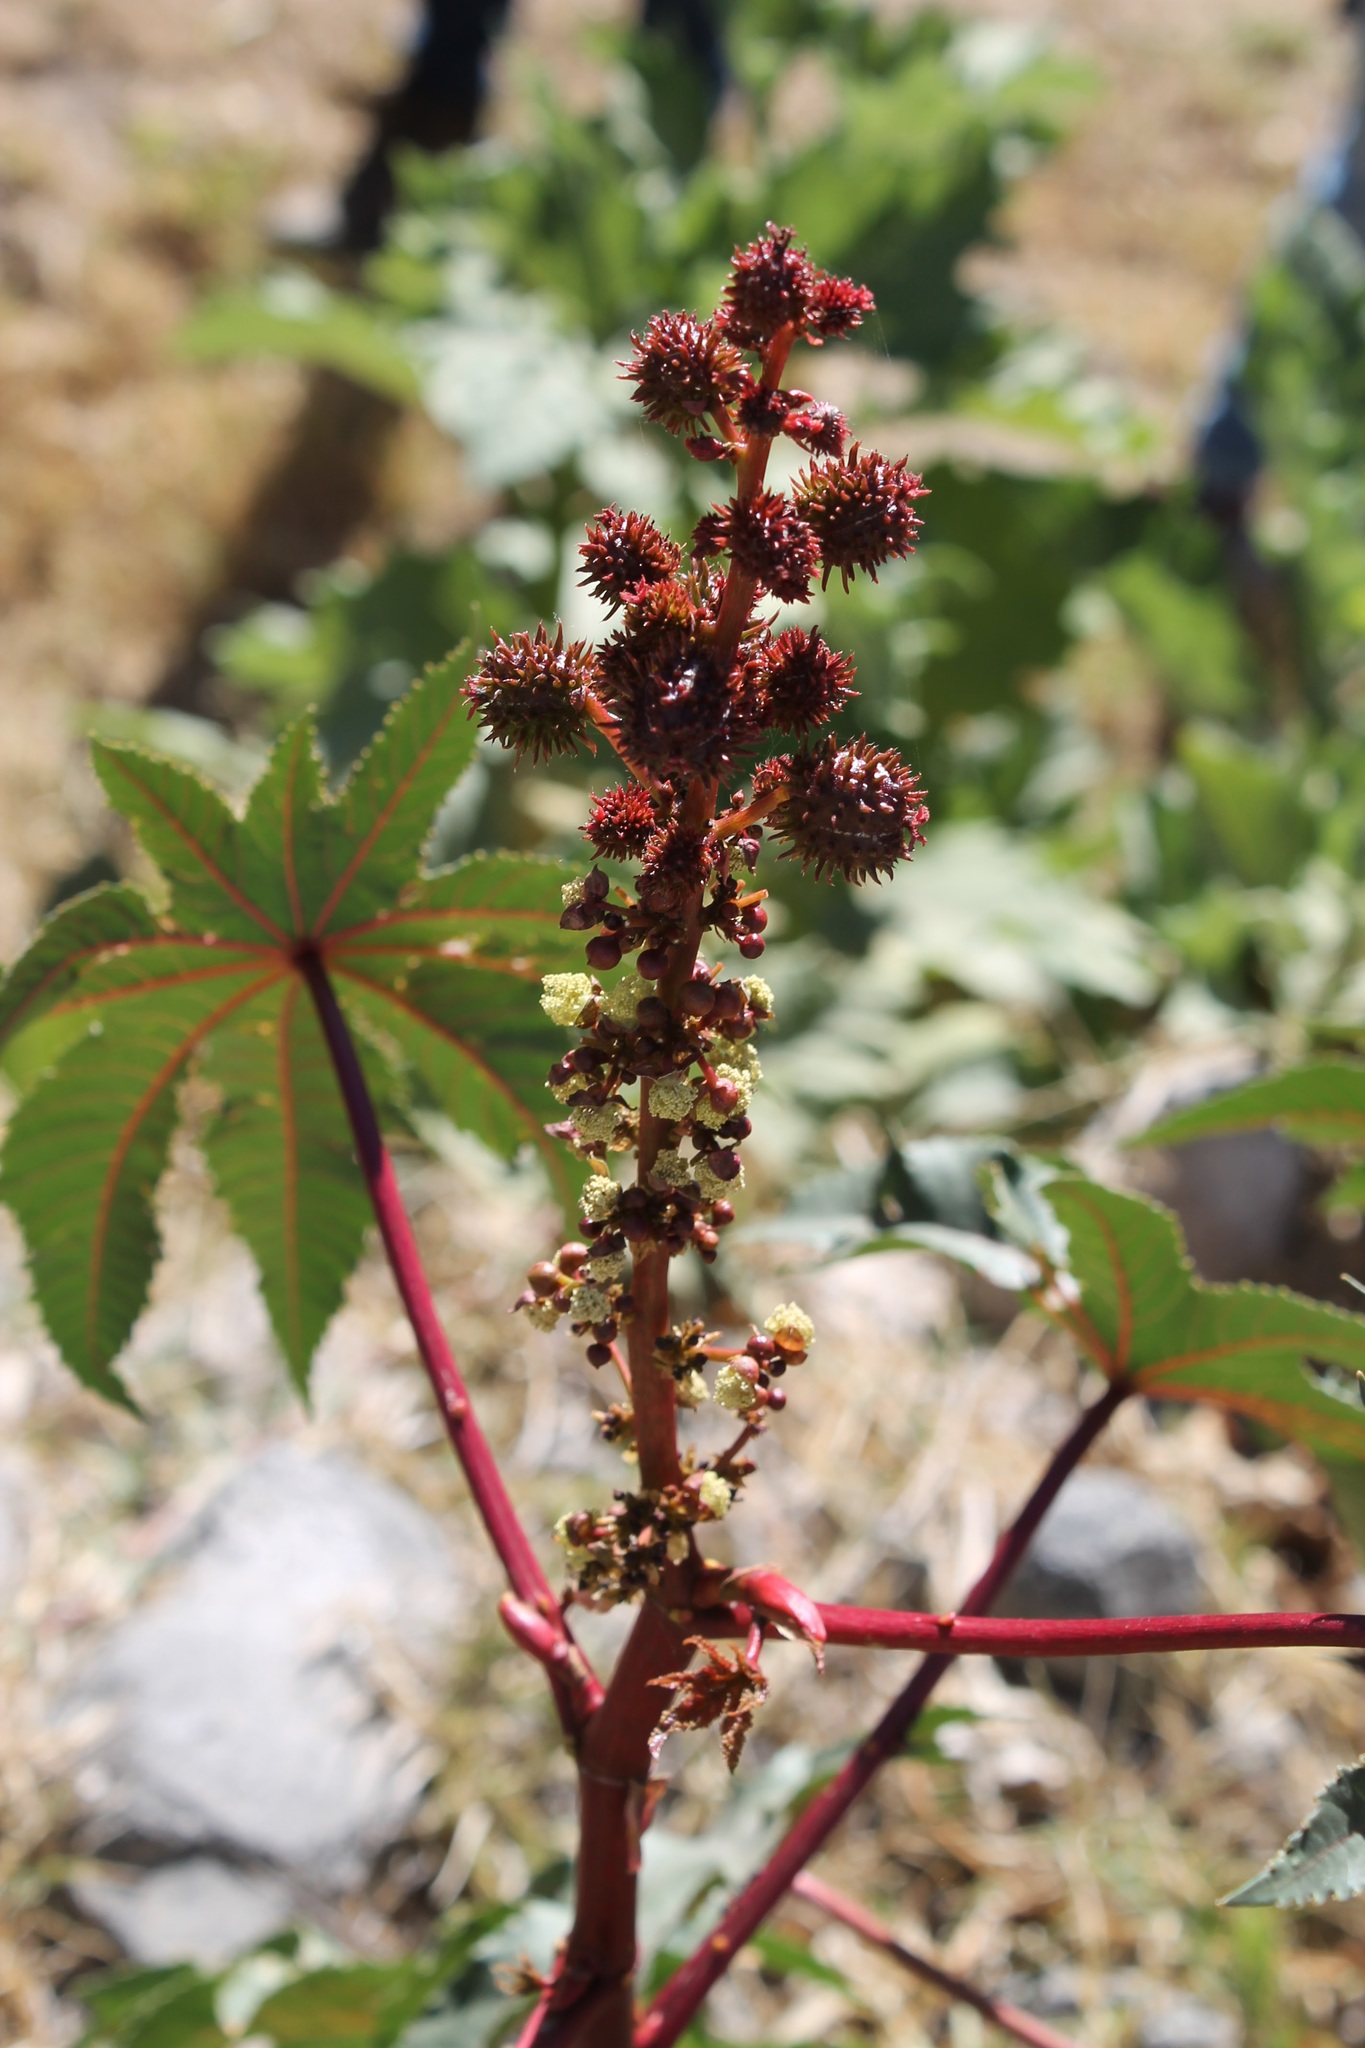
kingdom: Plantae
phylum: Tracheophyta
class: Magnoliopsida
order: Malpighiales
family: Euphorbiaceae
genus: Ricinus
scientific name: Ricinus communis
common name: Castor-oil-plant
